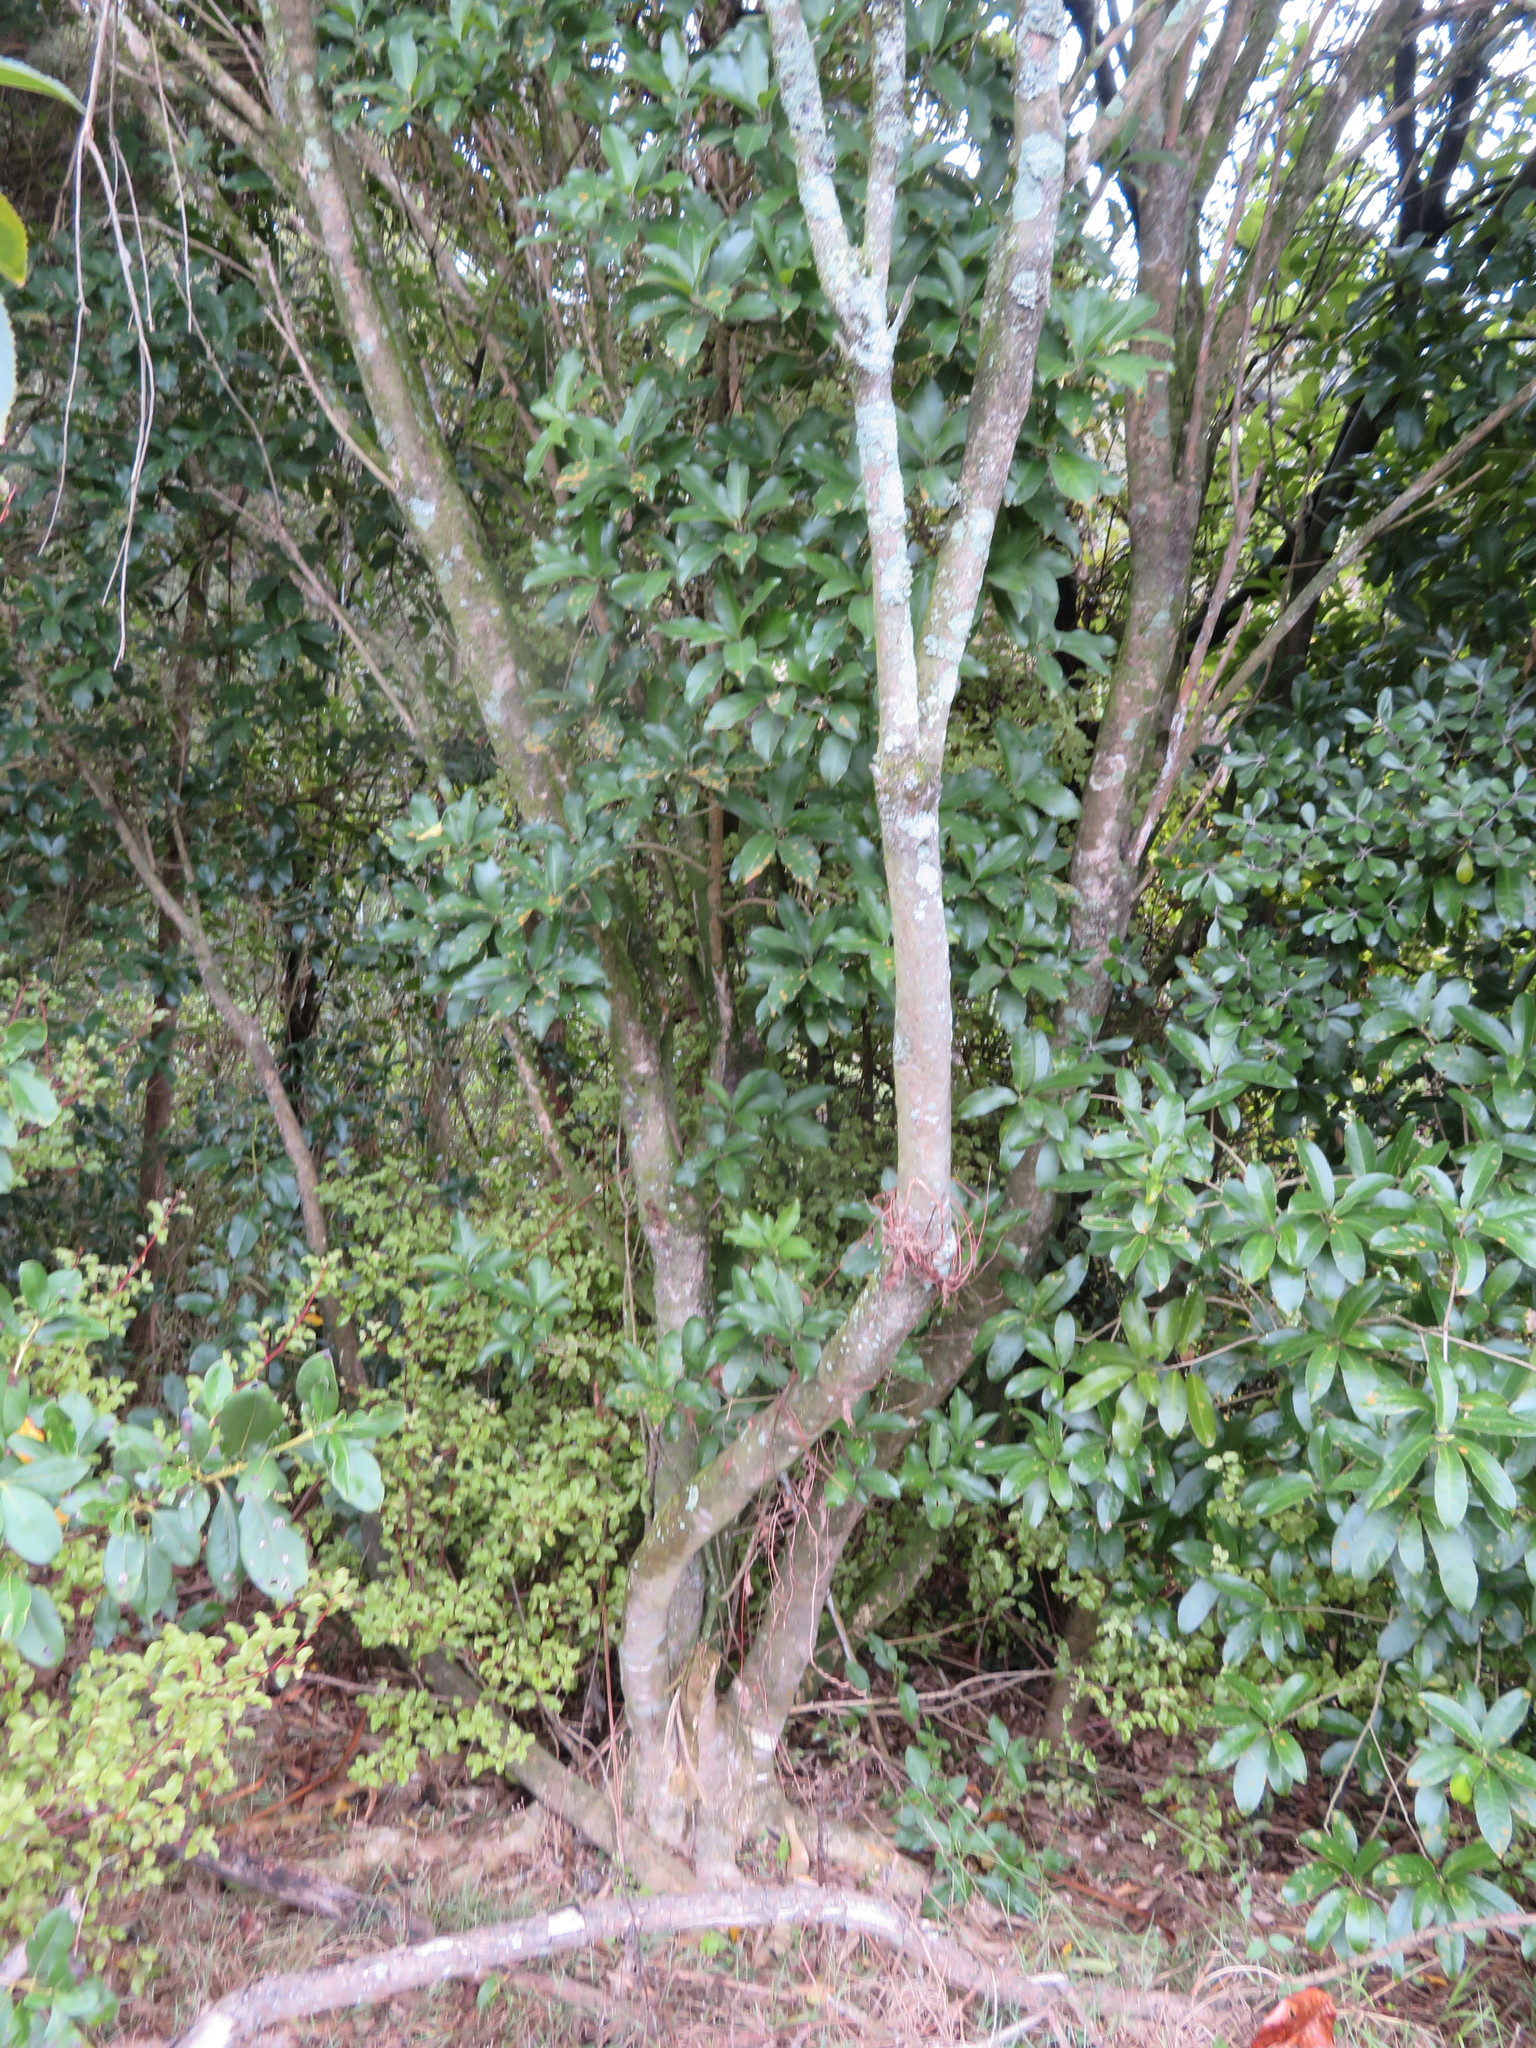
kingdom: Plantae
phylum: Tracheophyta
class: Magnoliopsida
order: Malpighiales
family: Violaceae
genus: Melicytus
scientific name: Melicytus ramiflorus
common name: Mahoe
